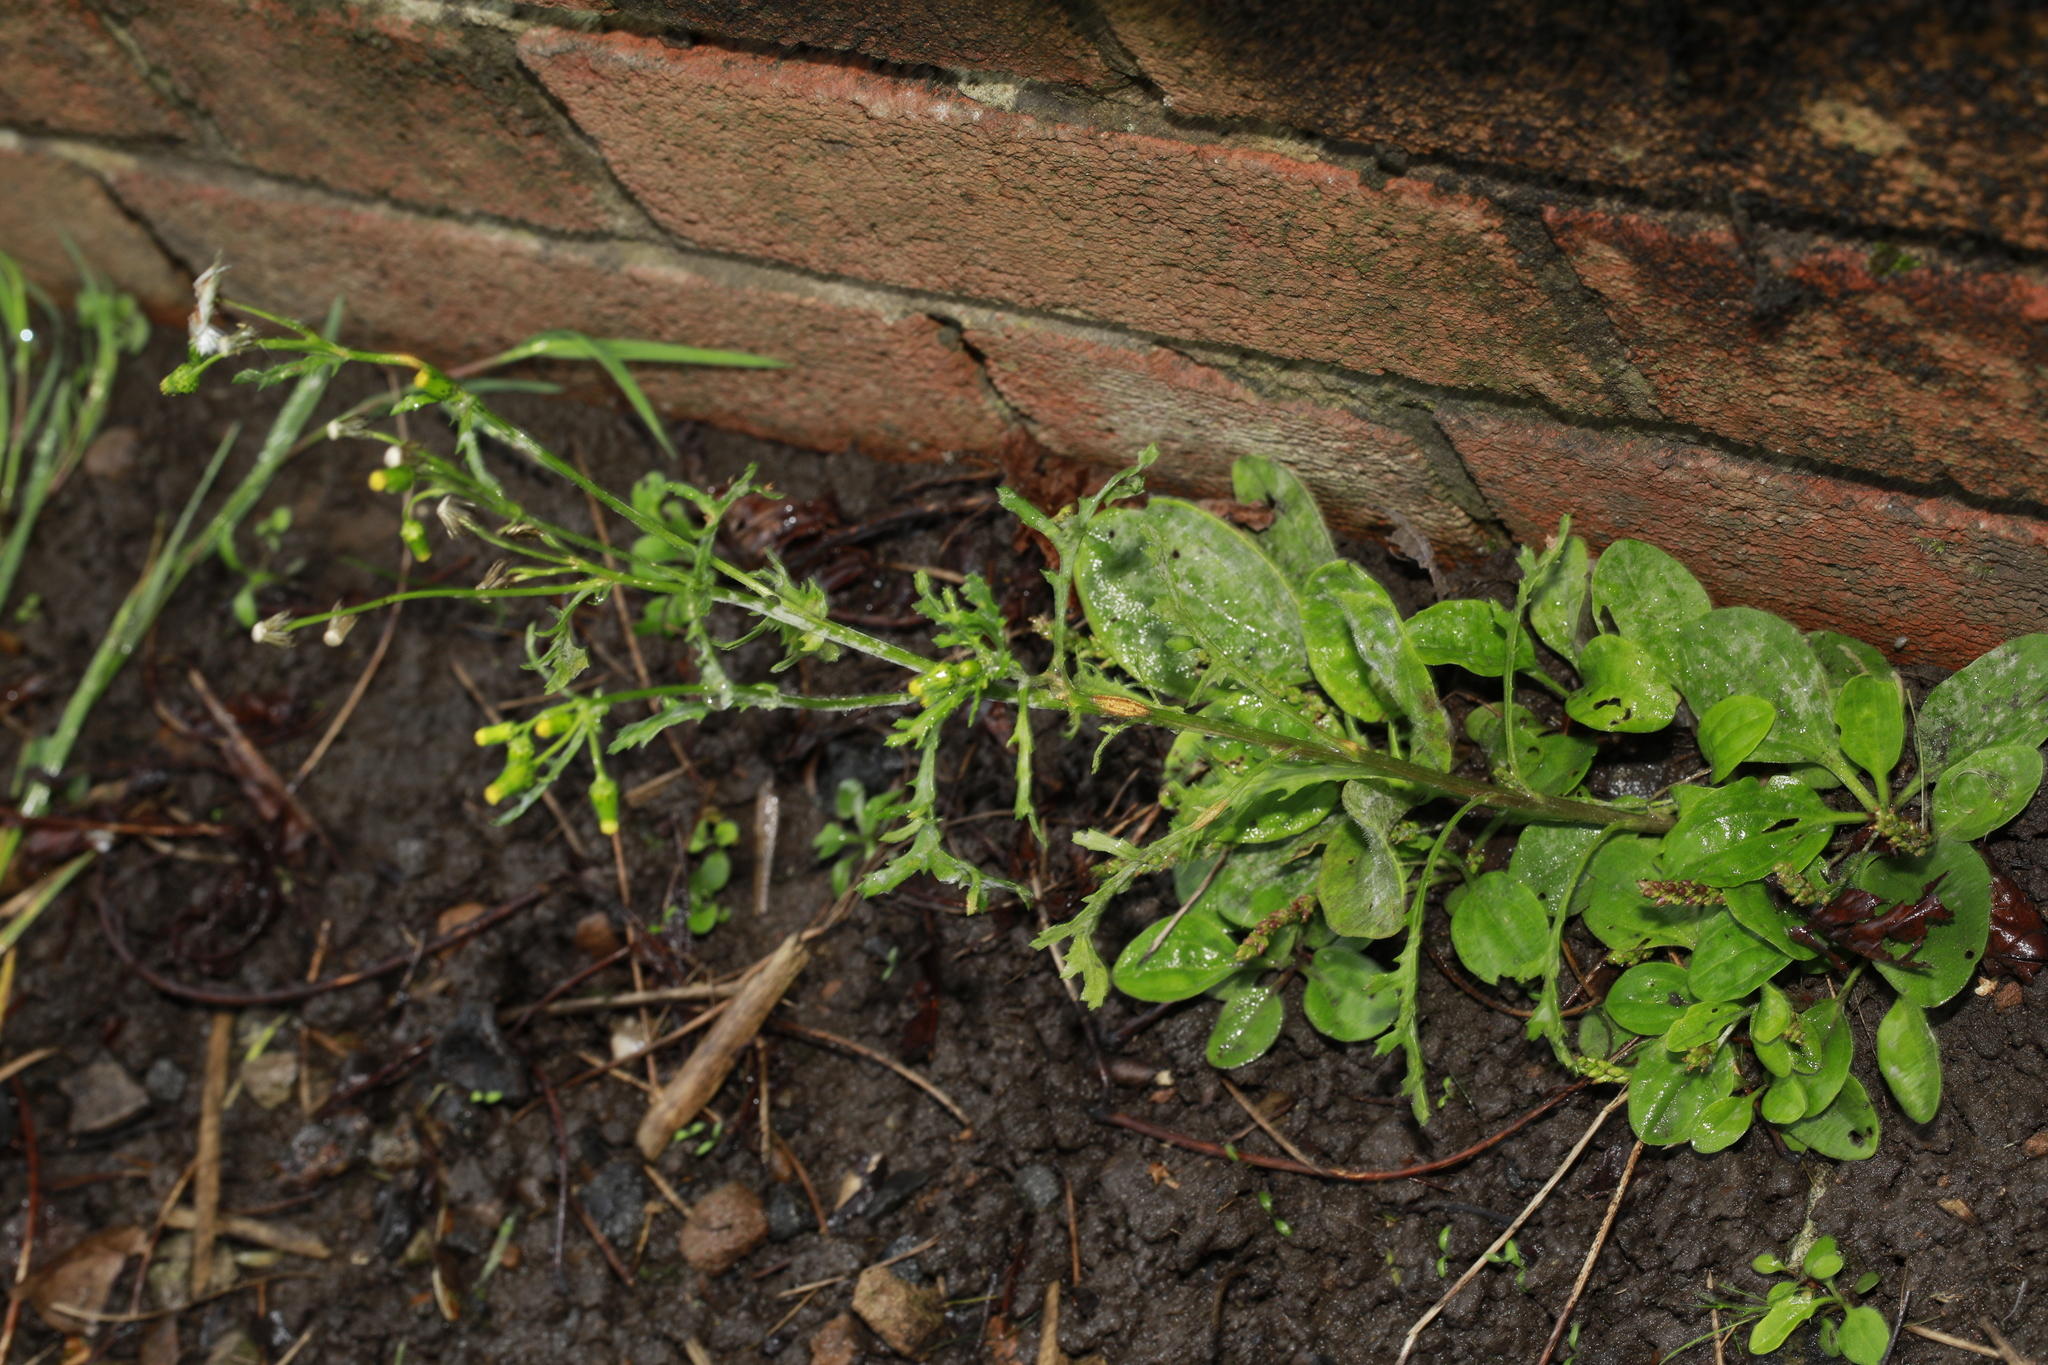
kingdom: Plantae
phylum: Tracheophyta
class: Magnoliopsida
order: Asterales
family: Asteraceae
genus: Senecio
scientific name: Senecio vulgaris
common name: Old-man-in-the-spring
